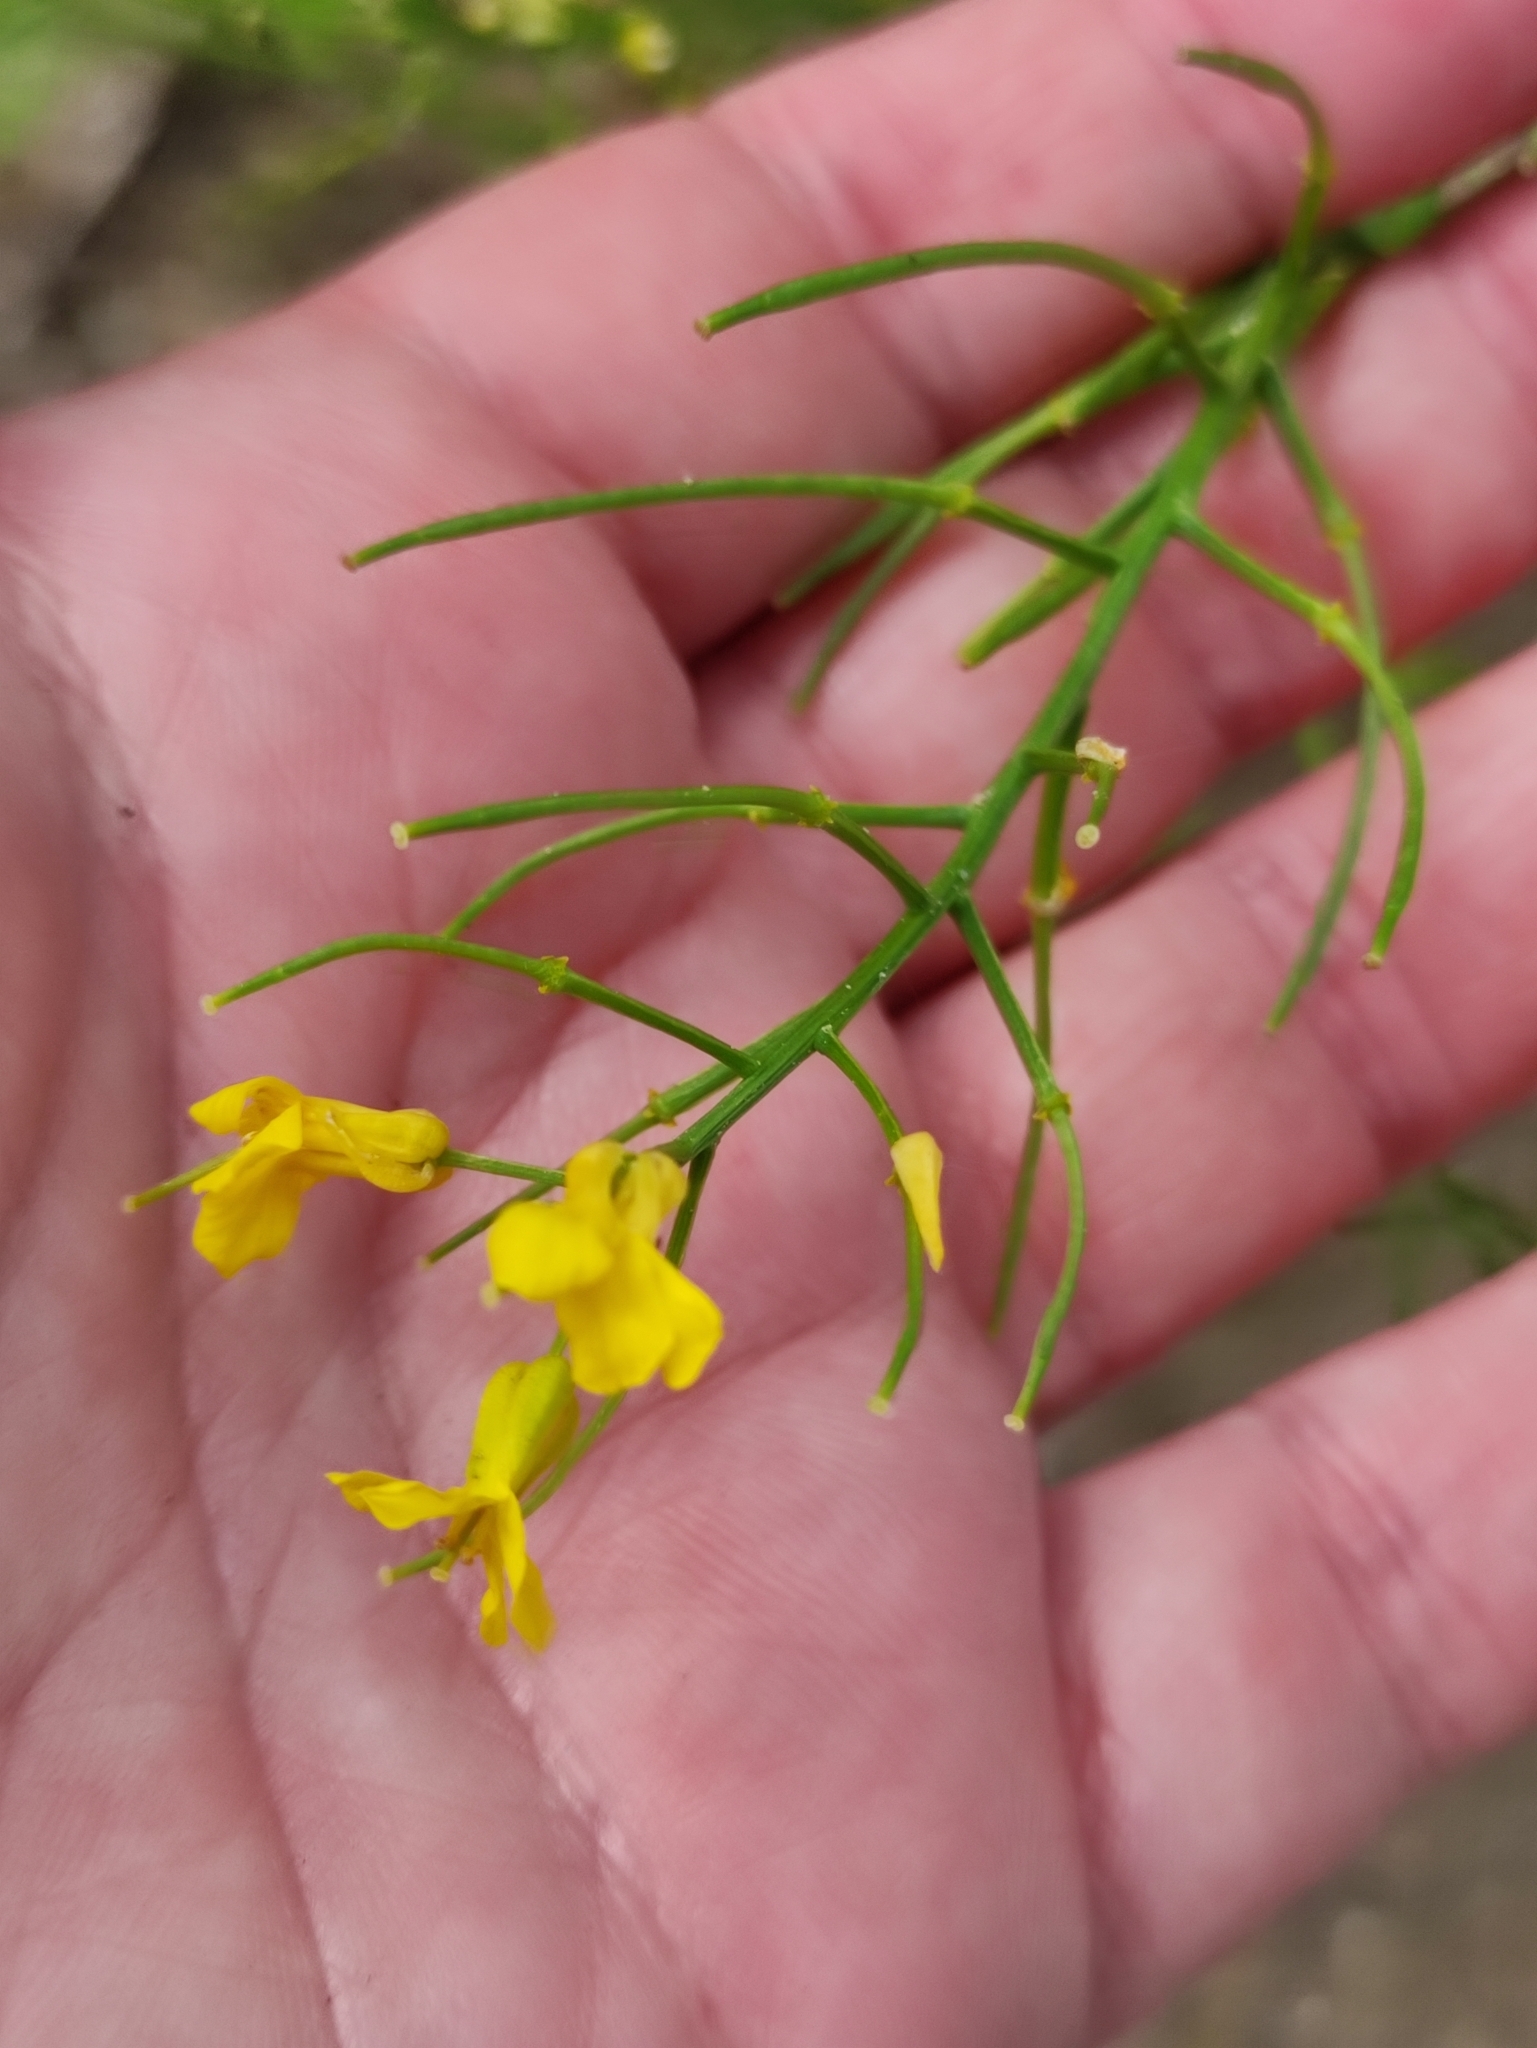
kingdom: Plantae
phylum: Tracheophyta
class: Magnoliopsida
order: Brassicales
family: Brassicaceae
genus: Barbarea
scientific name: Barbarea vulgaris
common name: Cressy-greens
